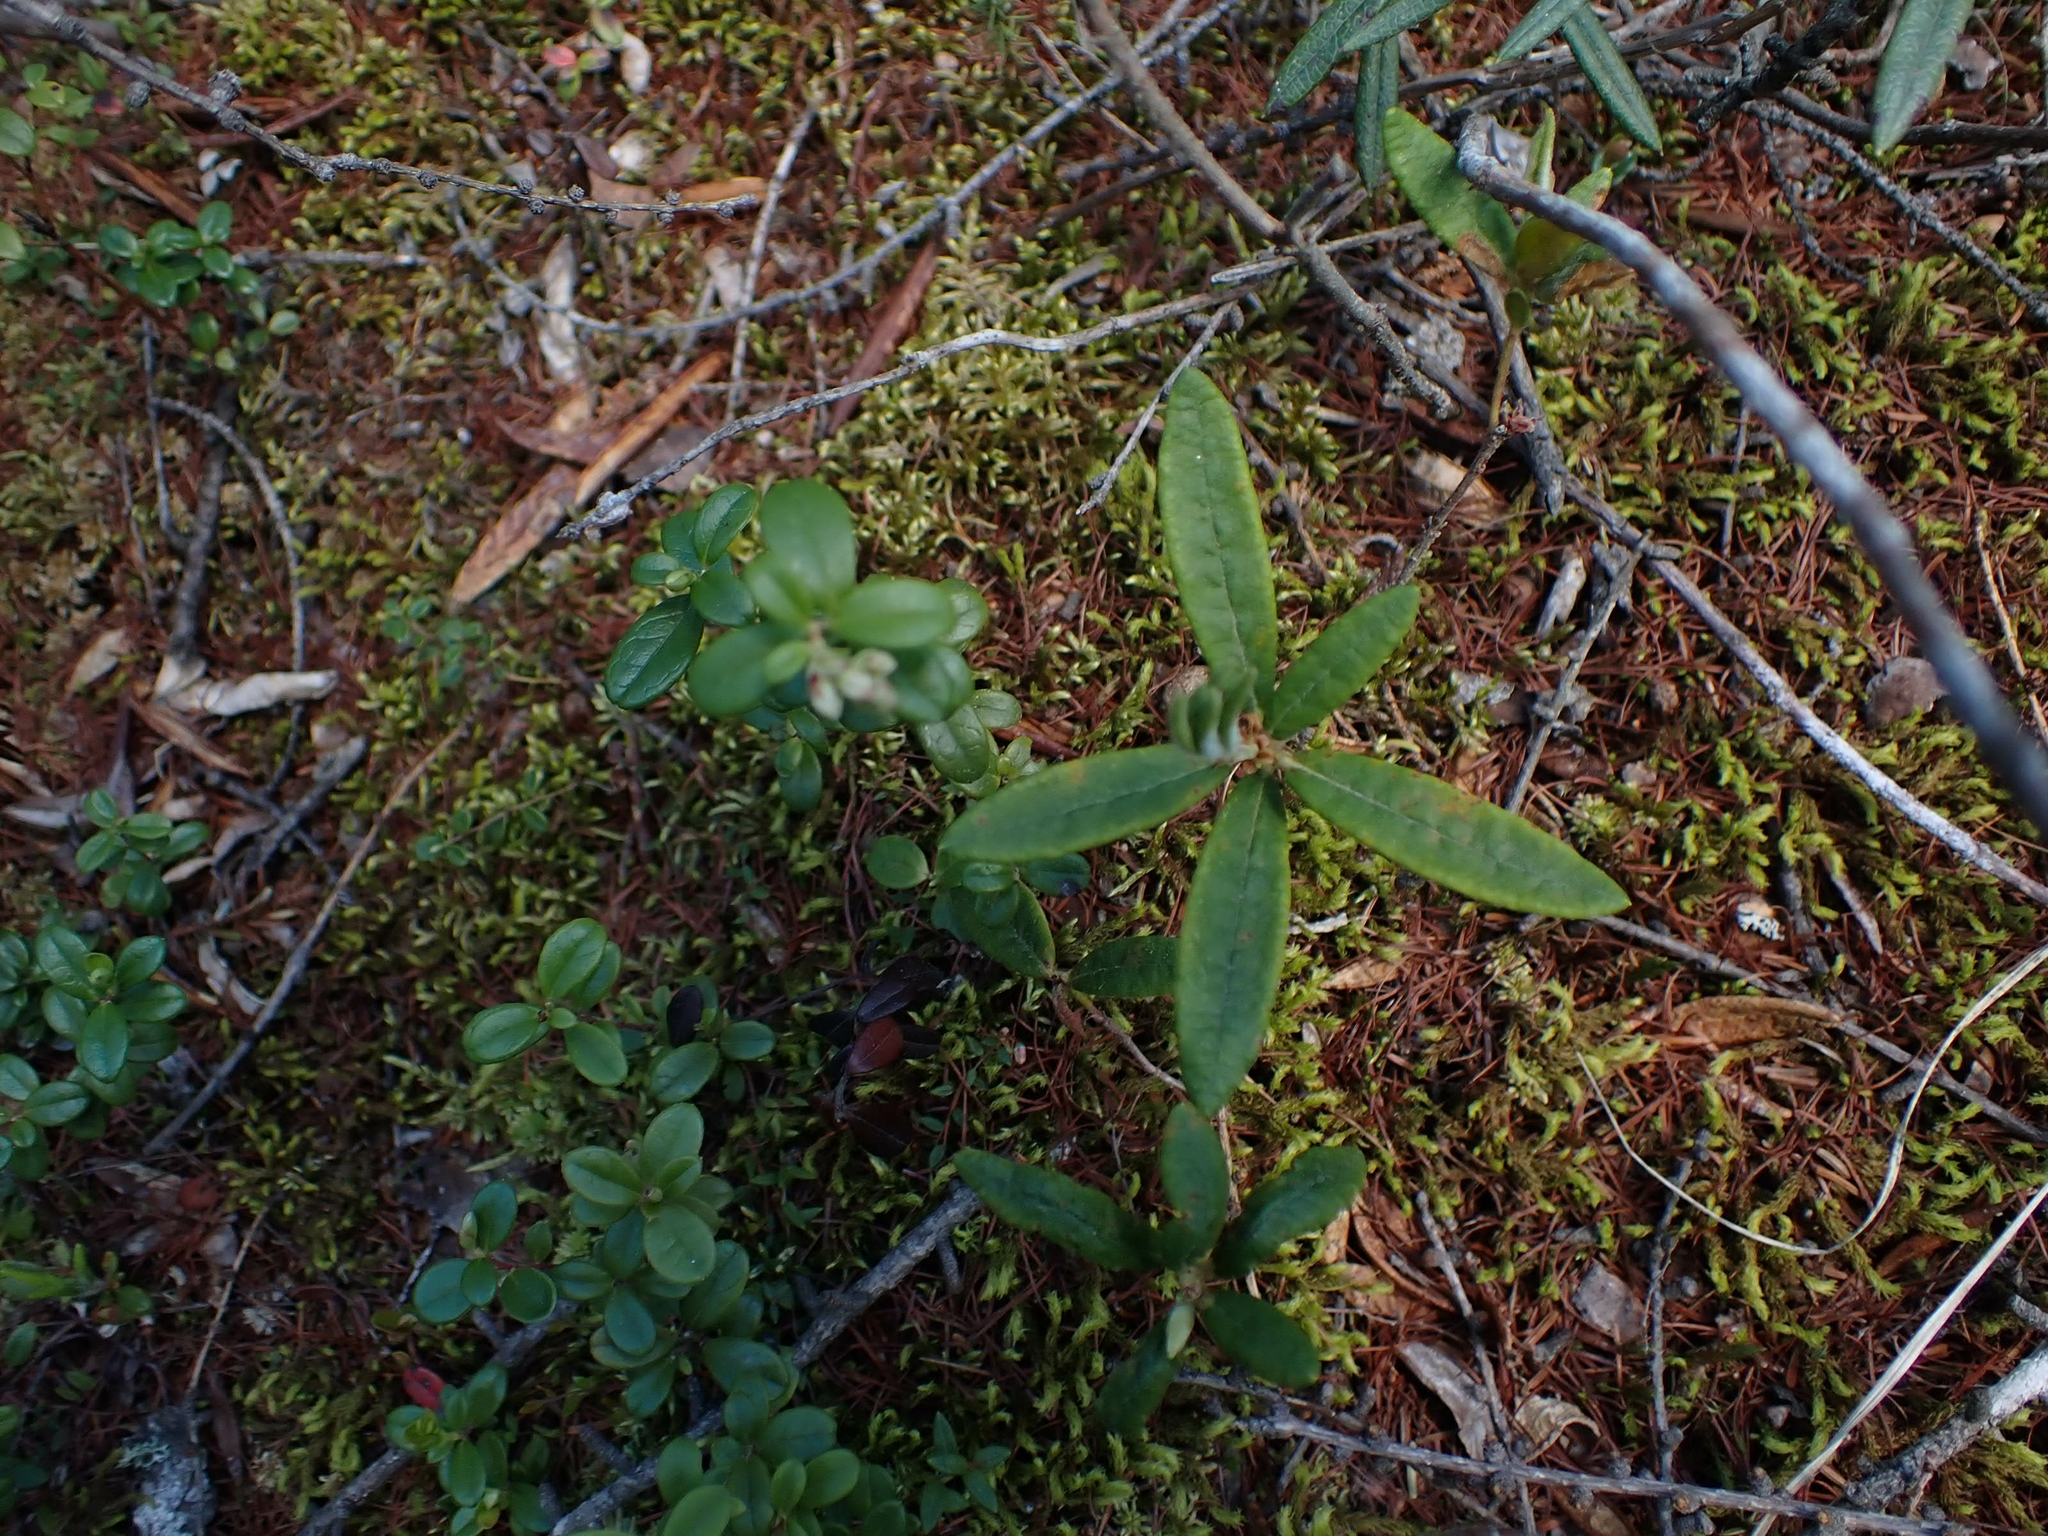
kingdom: Plantae
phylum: Tracheophyta
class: Magnoliopsida
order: Ericales
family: Ericaceae
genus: Vaccinium
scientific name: Vaccinium vitis-idaea
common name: Cowberry
